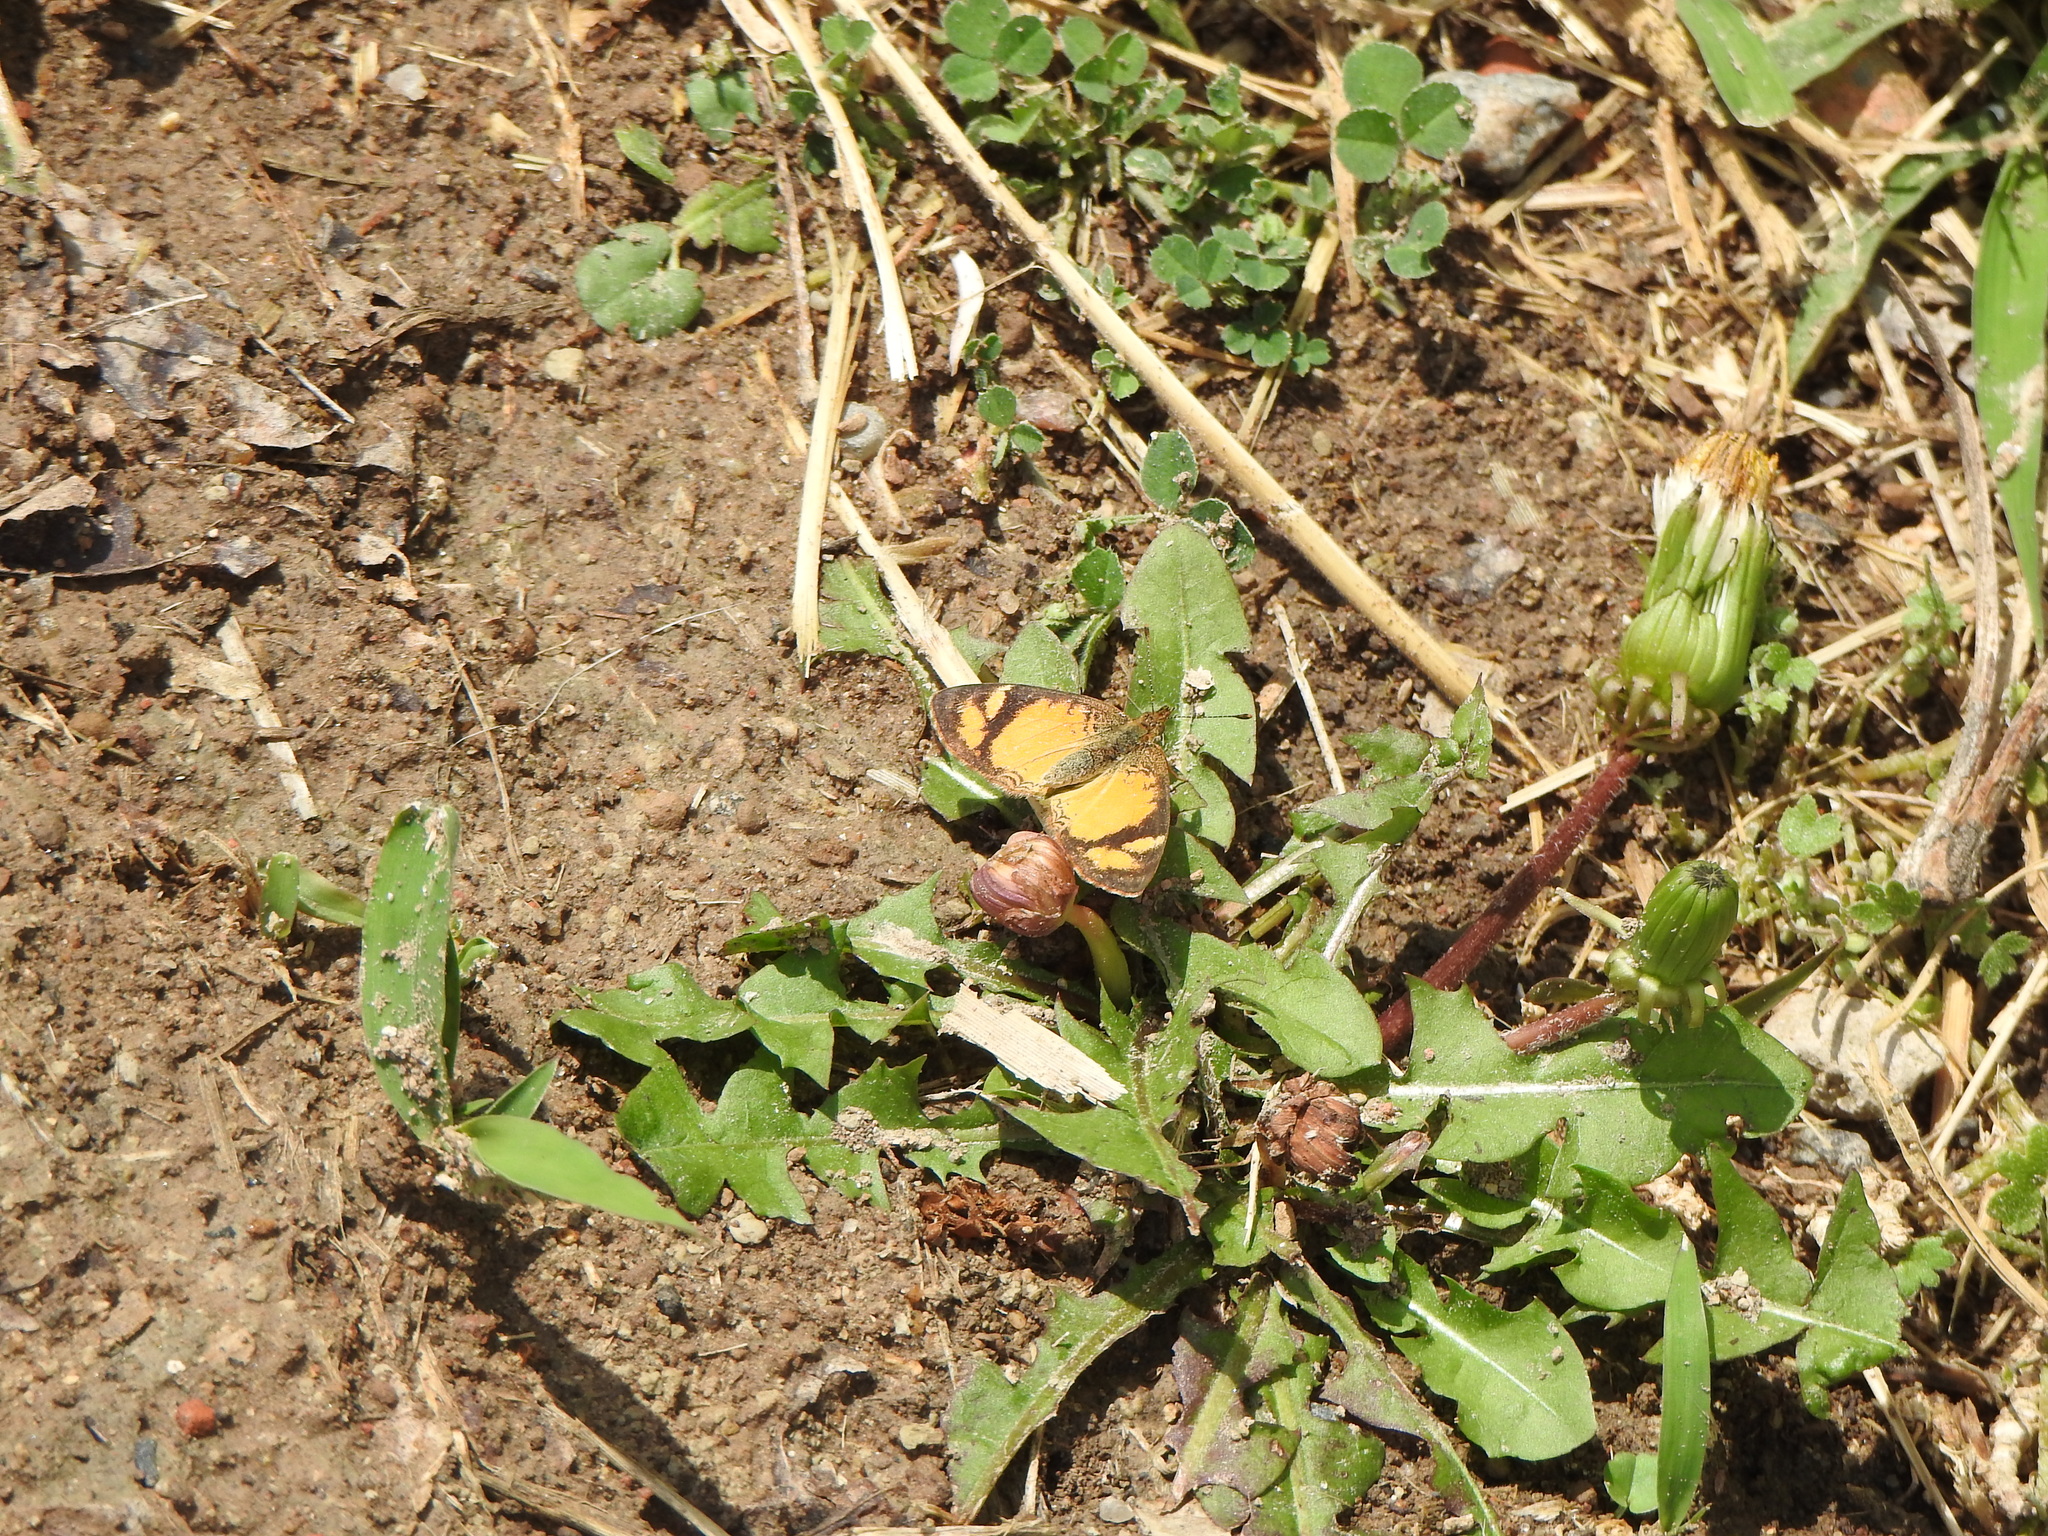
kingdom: Animalia
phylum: Arthropoda
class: Insecta
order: Lepidoptera
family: Nymphalidae
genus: Tegosa
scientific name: Tegosa claudina
